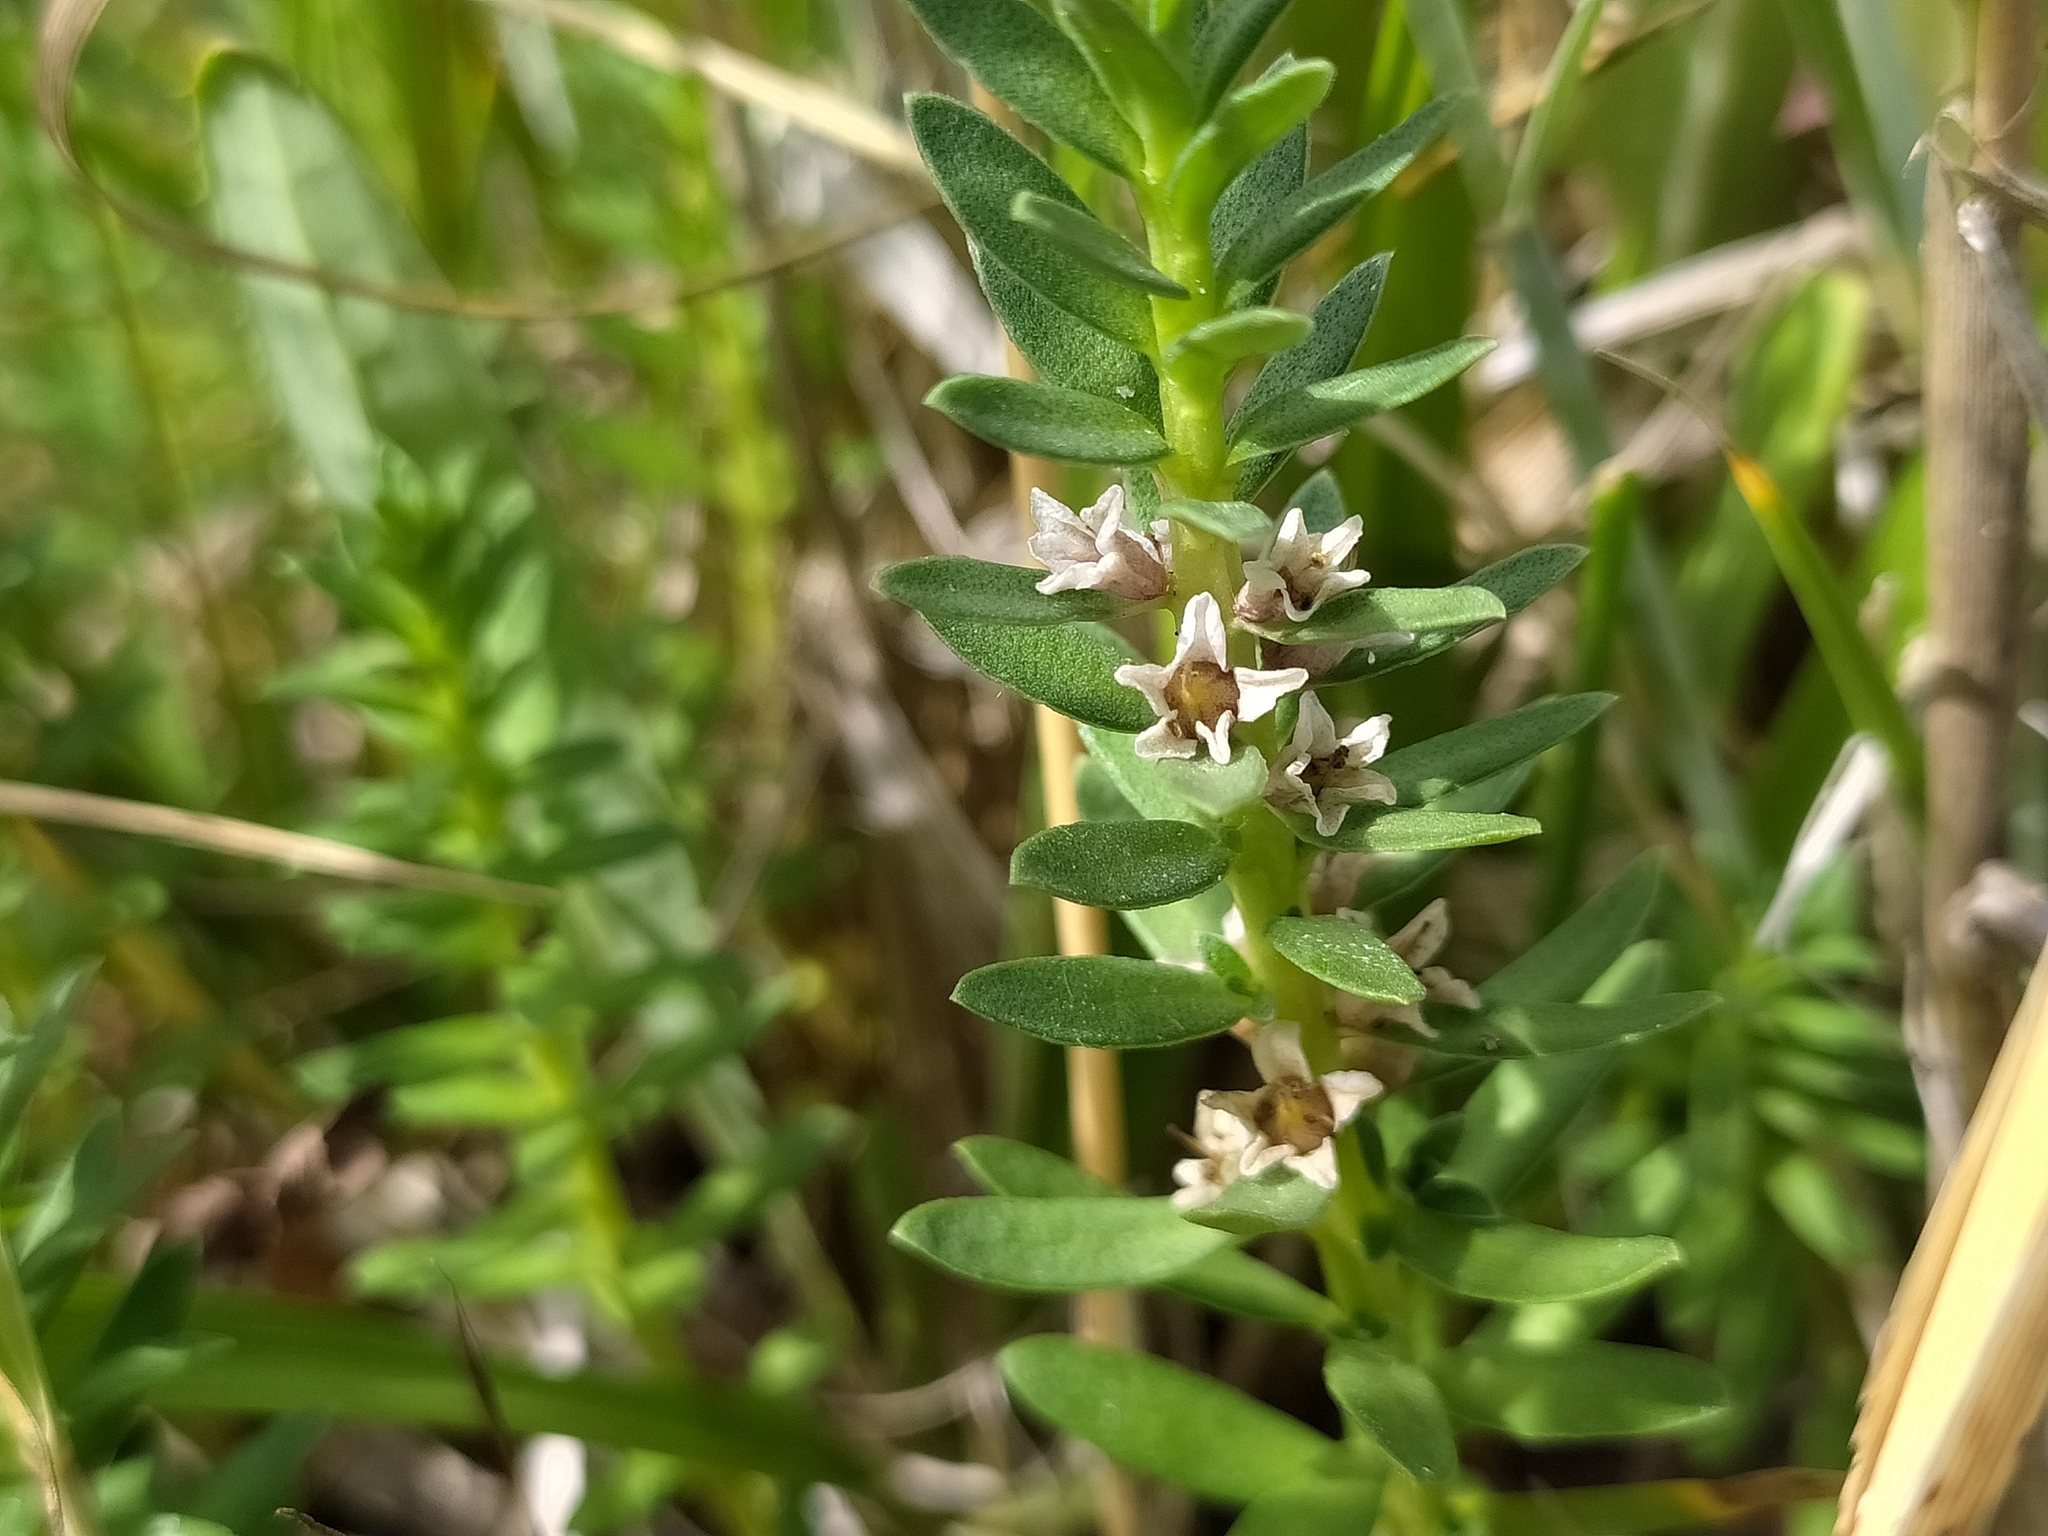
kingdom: Plantae
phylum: Tracheophyta
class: Magnoliopsida
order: Ericales
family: Primulaceae
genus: Lysimachia
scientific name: Lysimachia maritima
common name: Sea milkwort
